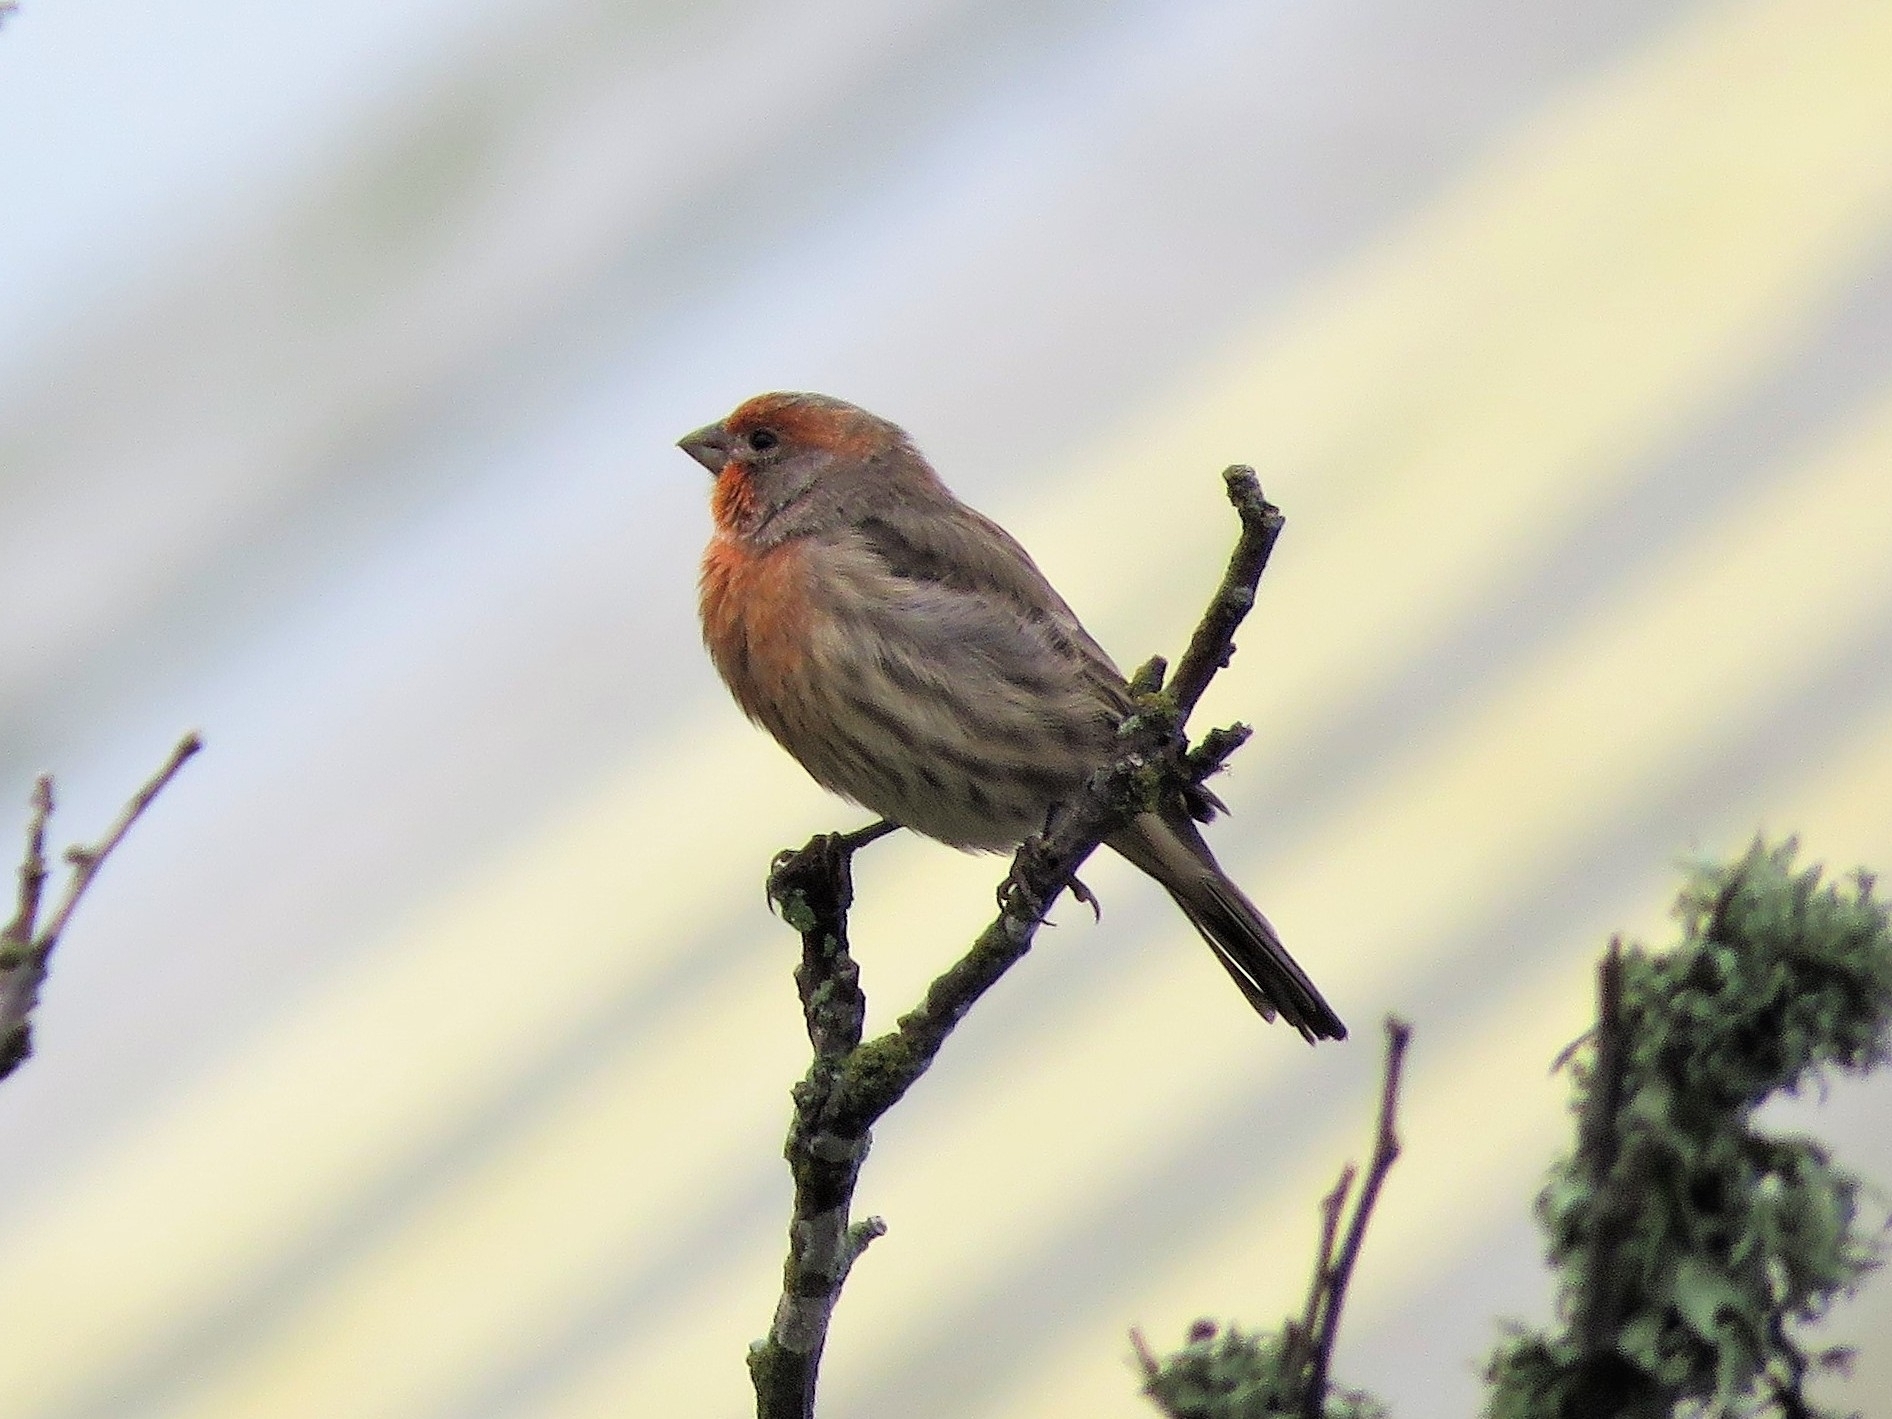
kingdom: Animalia
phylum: Chordata
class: Aves
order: Passeriformes
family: Fringillidae
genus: Haemorhous
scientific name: Haemorhous mexicanus
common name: House finch
